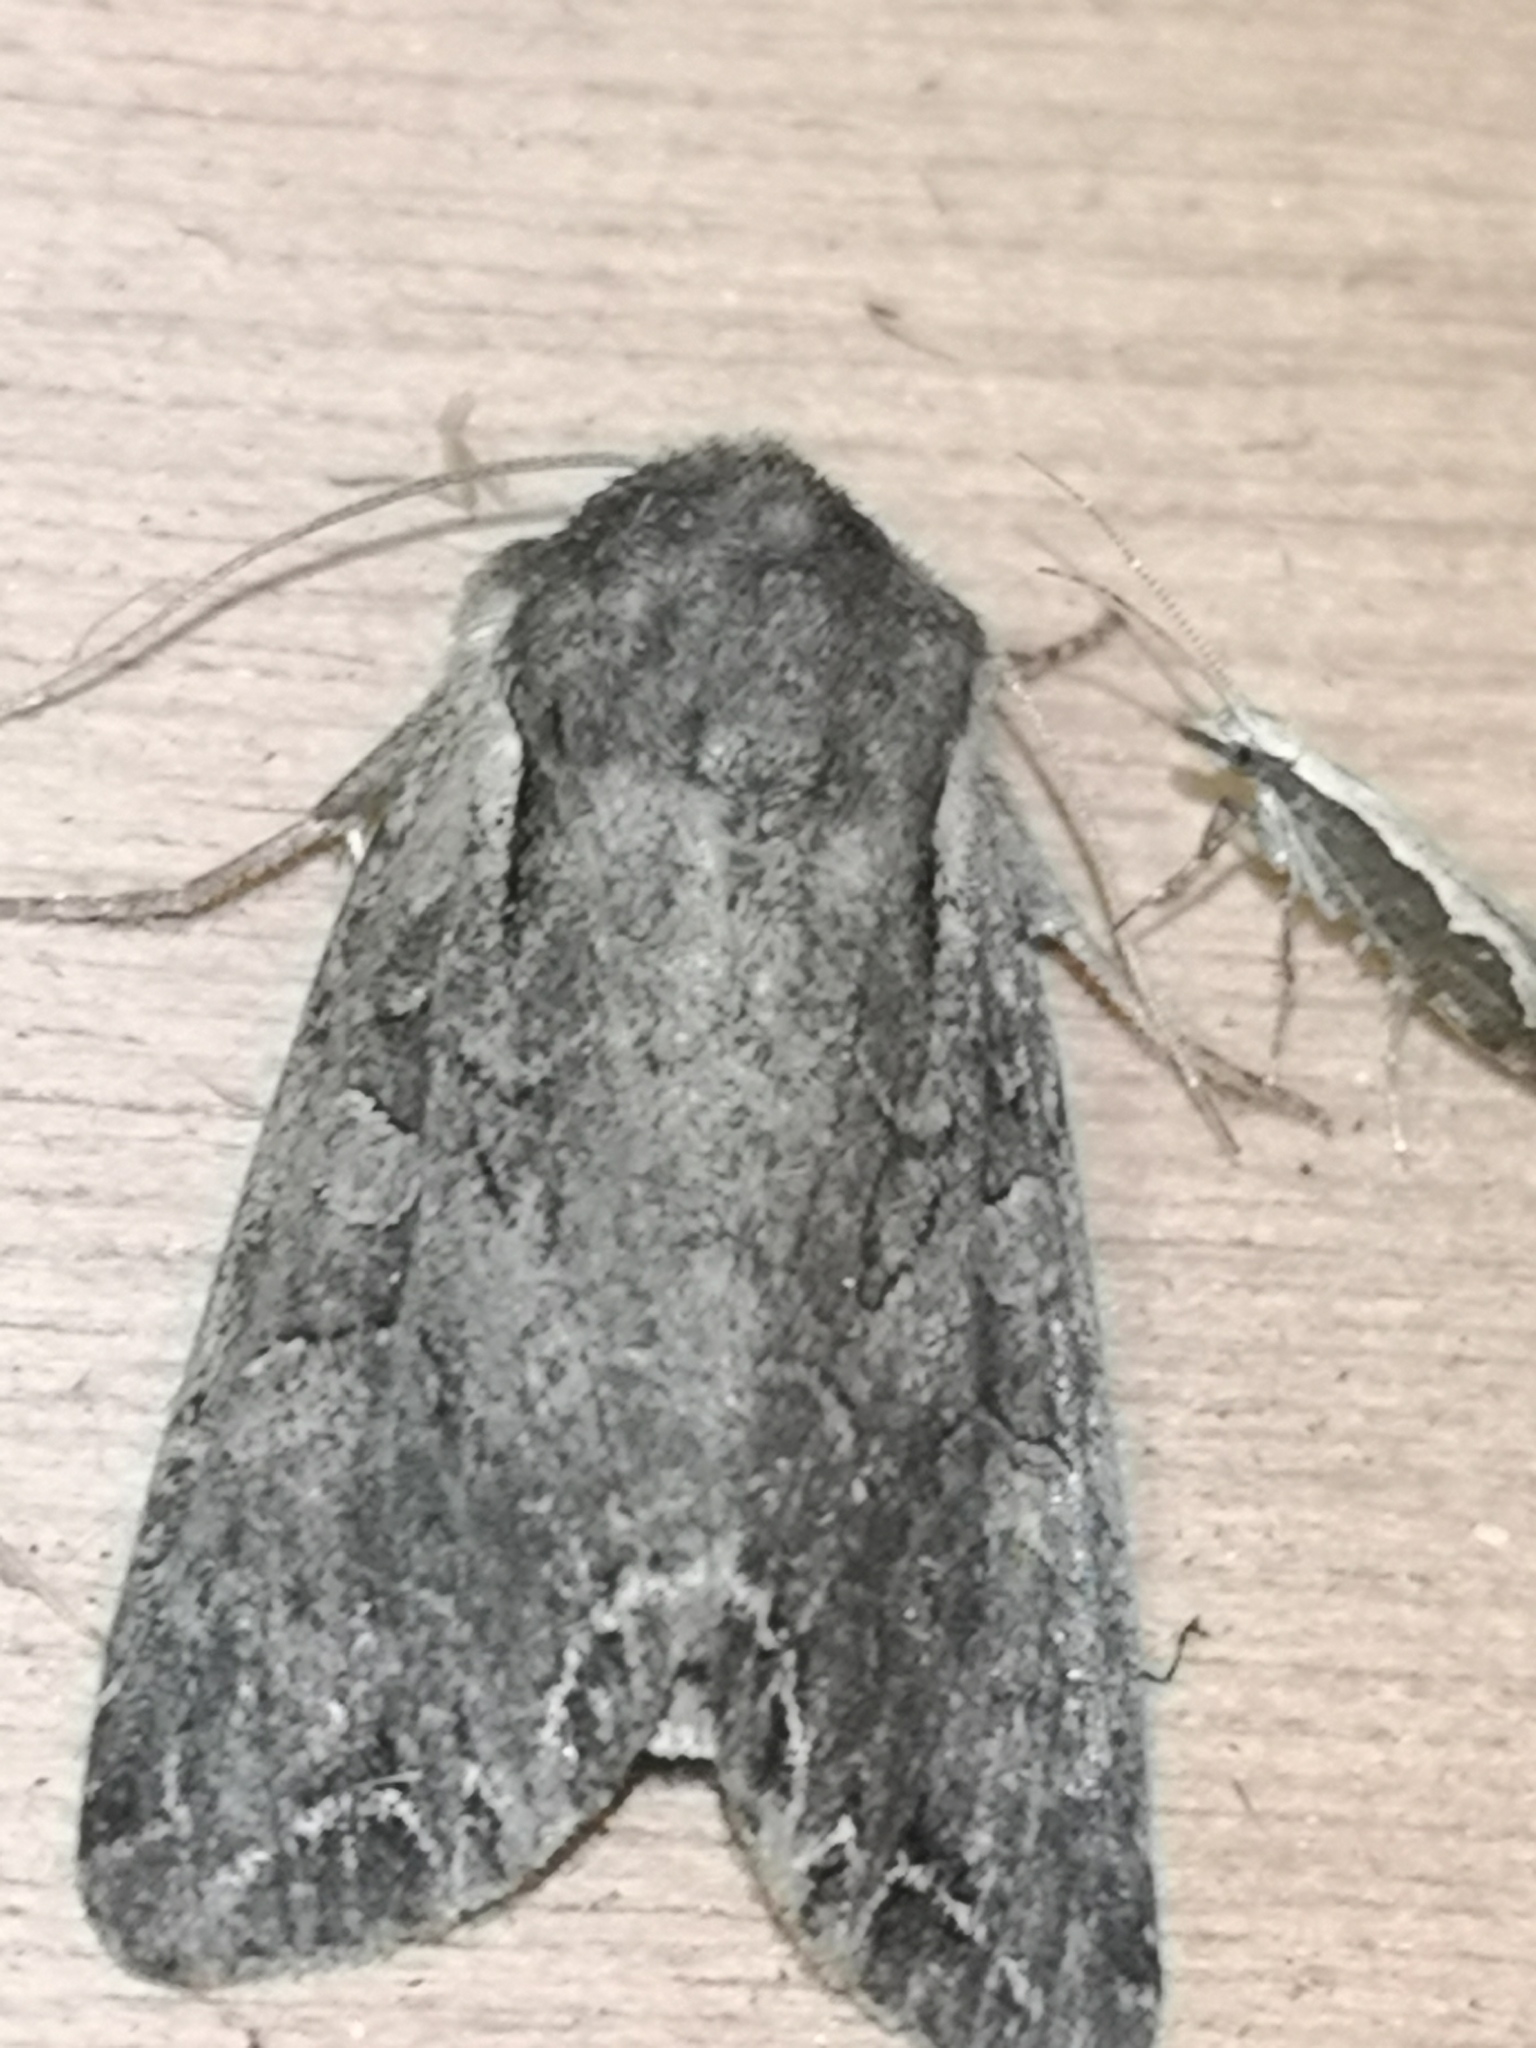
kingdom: Animalia
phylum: Arthropoda
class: Insecta
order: Lepidoptera
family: Noctuidae
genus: Lacanobia
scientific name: Lacanobia suasa
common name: Dog's tooth
